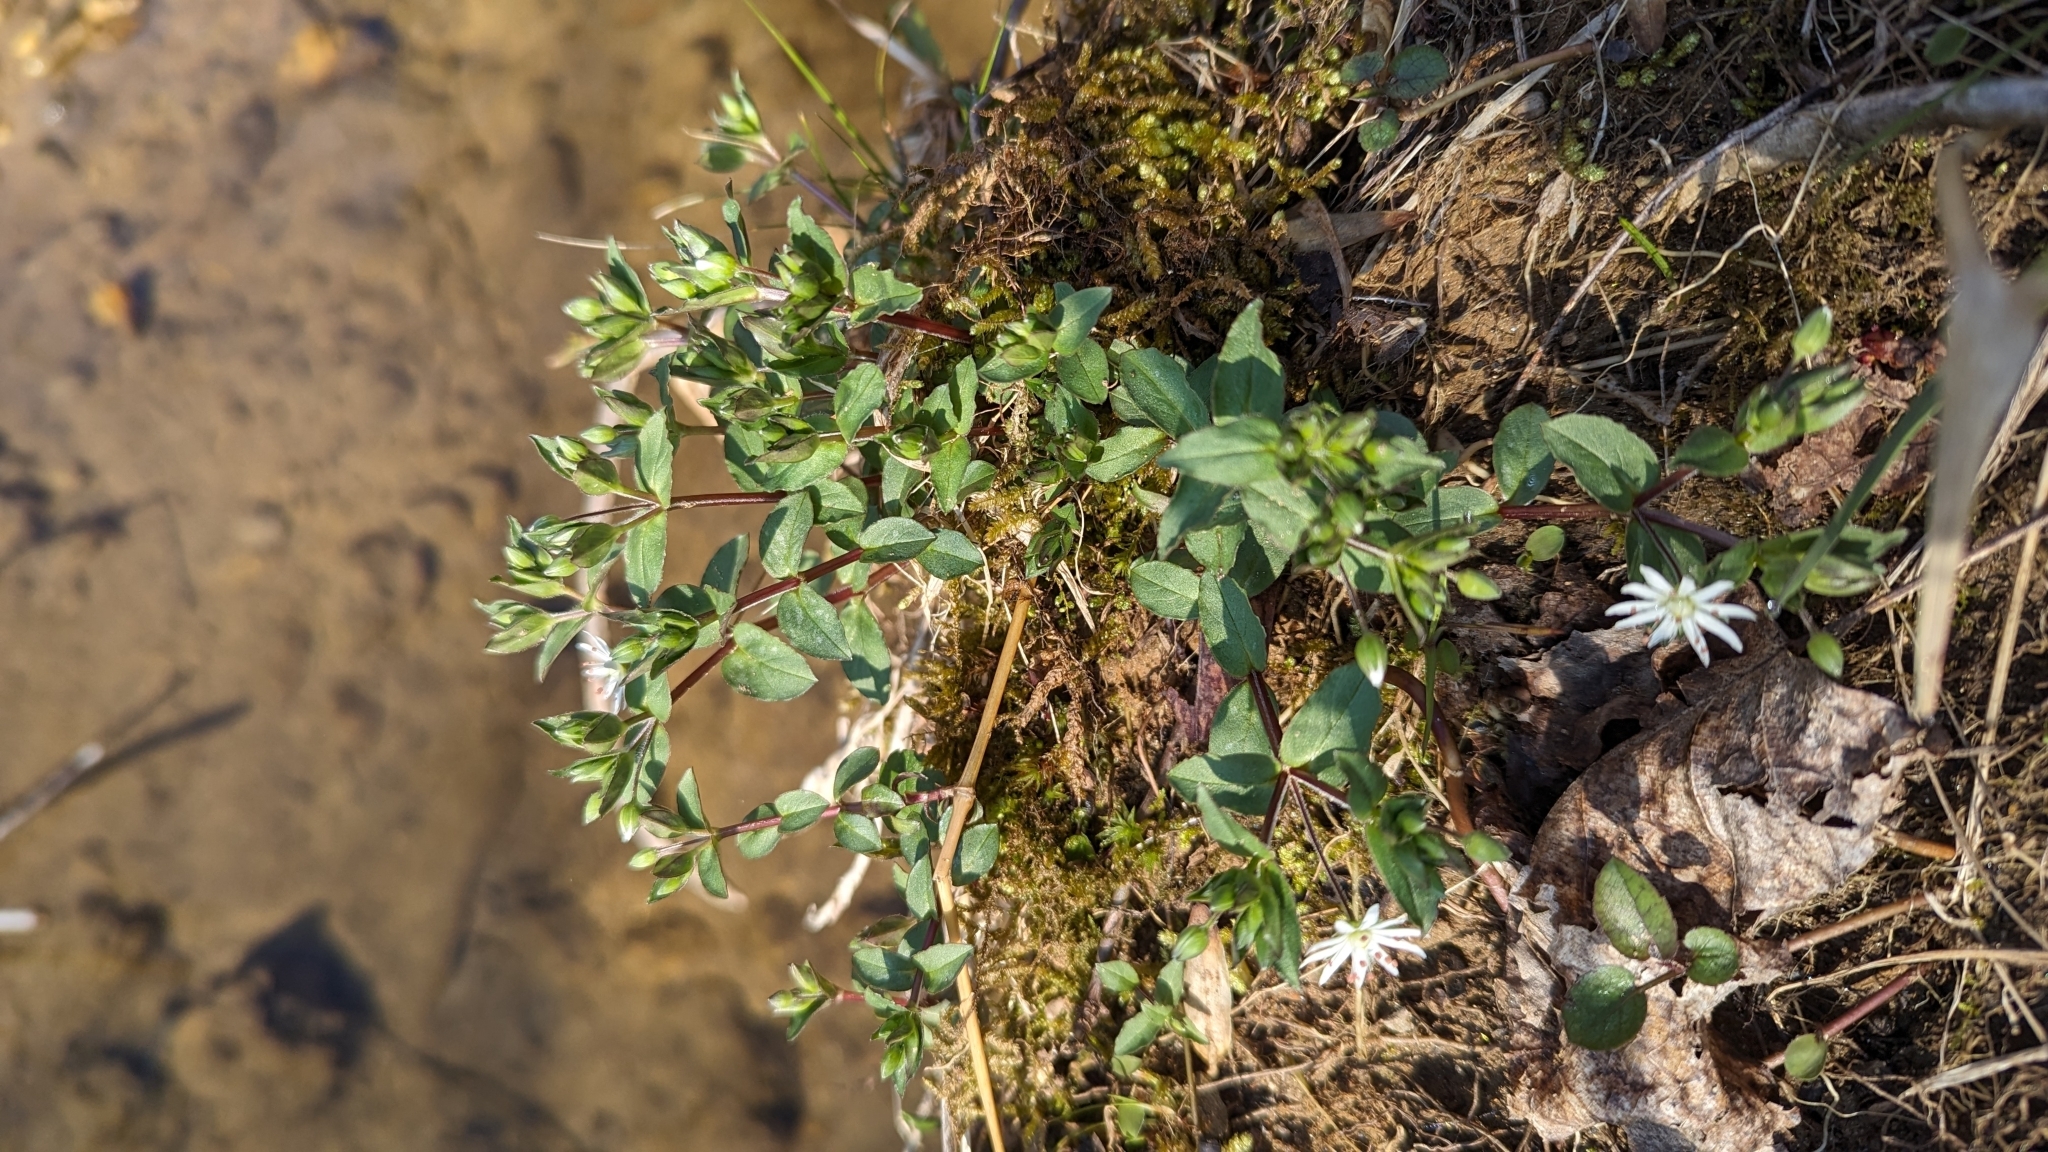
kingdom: Plantae
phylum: Tracheophyta
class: Magnoliopsida
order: Caryophyllales
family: Caryophyllaceae
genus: Stellaria
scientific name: Stellaria pubera
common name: Star chickweed
